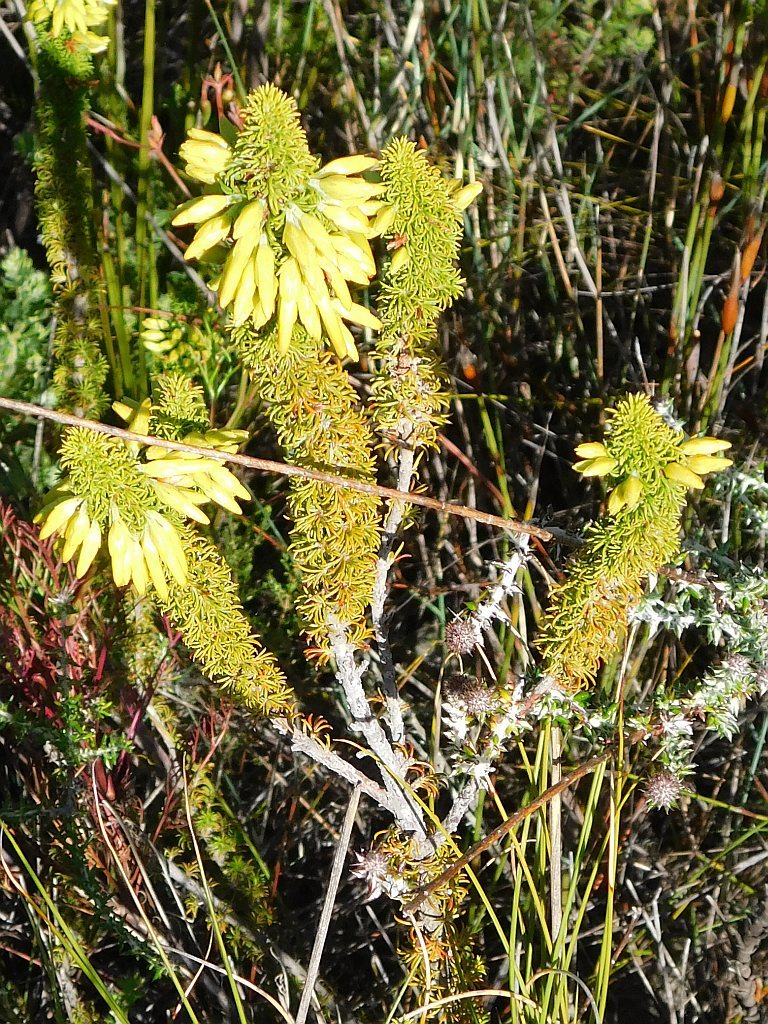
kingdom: Plantae
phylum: Tracheophyta
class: Magnoliopsida
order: Ericales
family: Ericaceae
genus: Erica
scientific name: Erica coccinea
